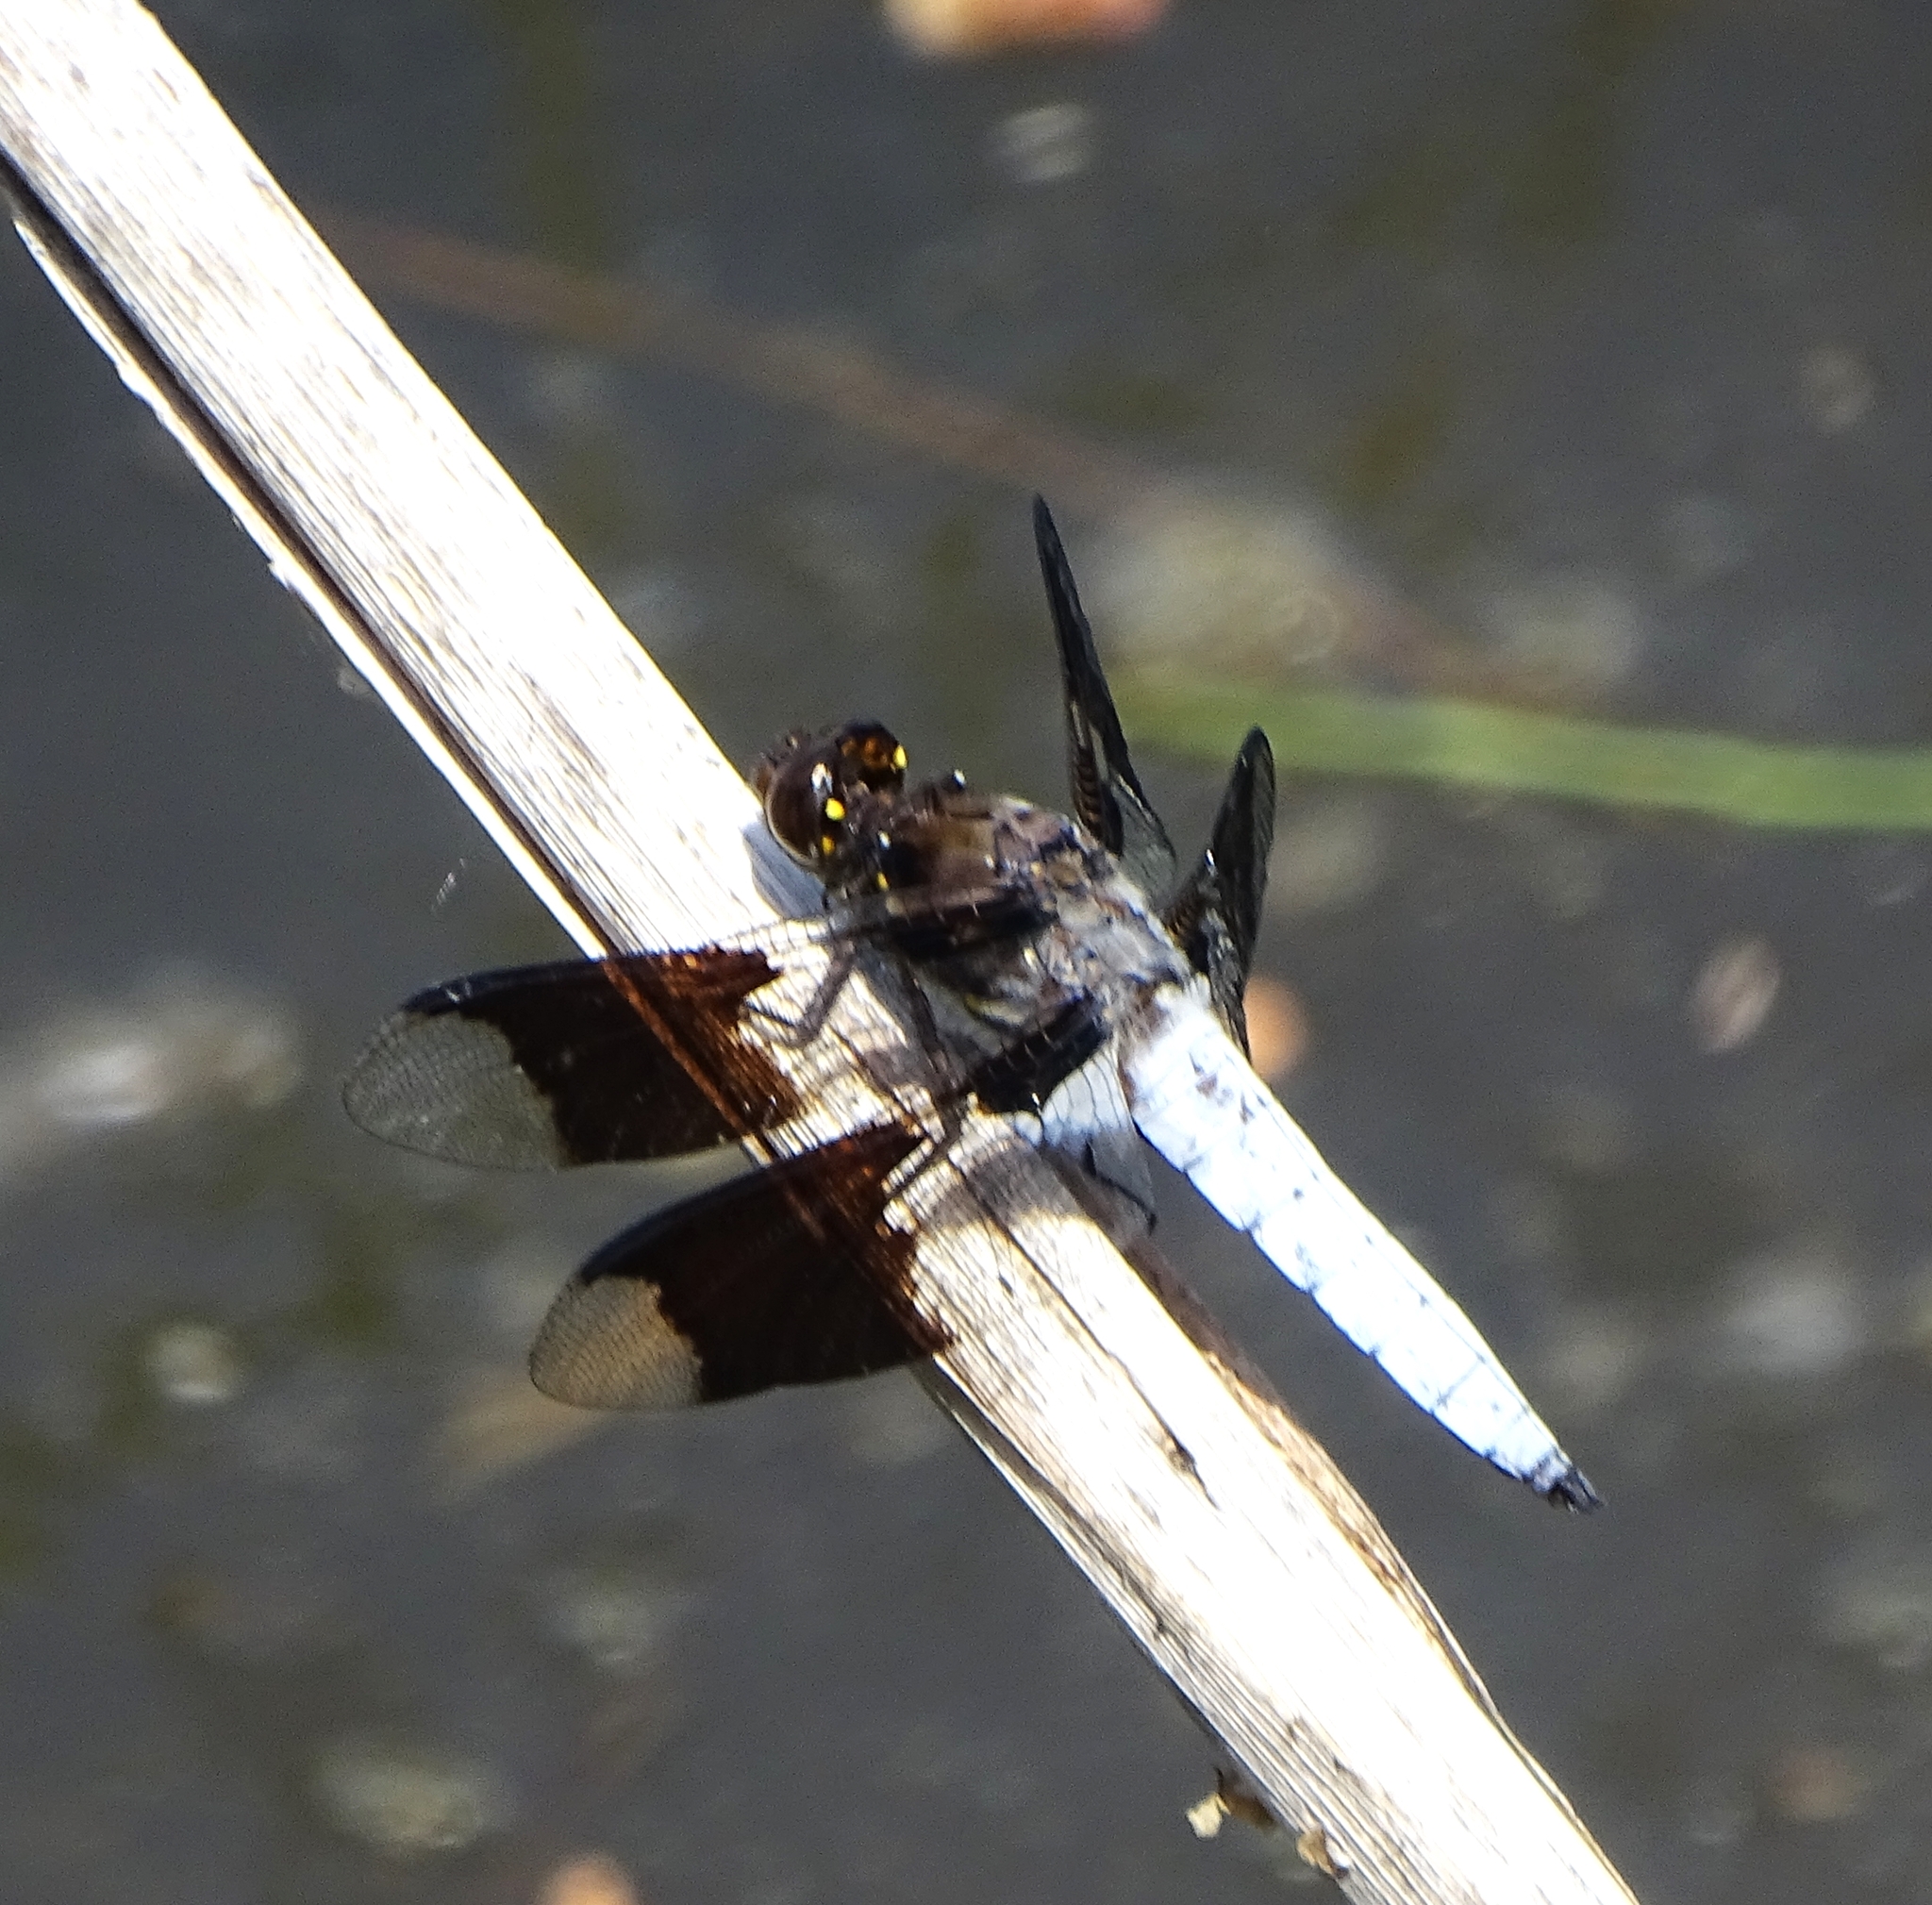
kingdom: Animalia
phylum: Arthropoda
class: Insecta
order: Odonata
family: Libellulidae
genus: Plathemis
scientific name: Plathemis lydia
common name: Common whitetail
